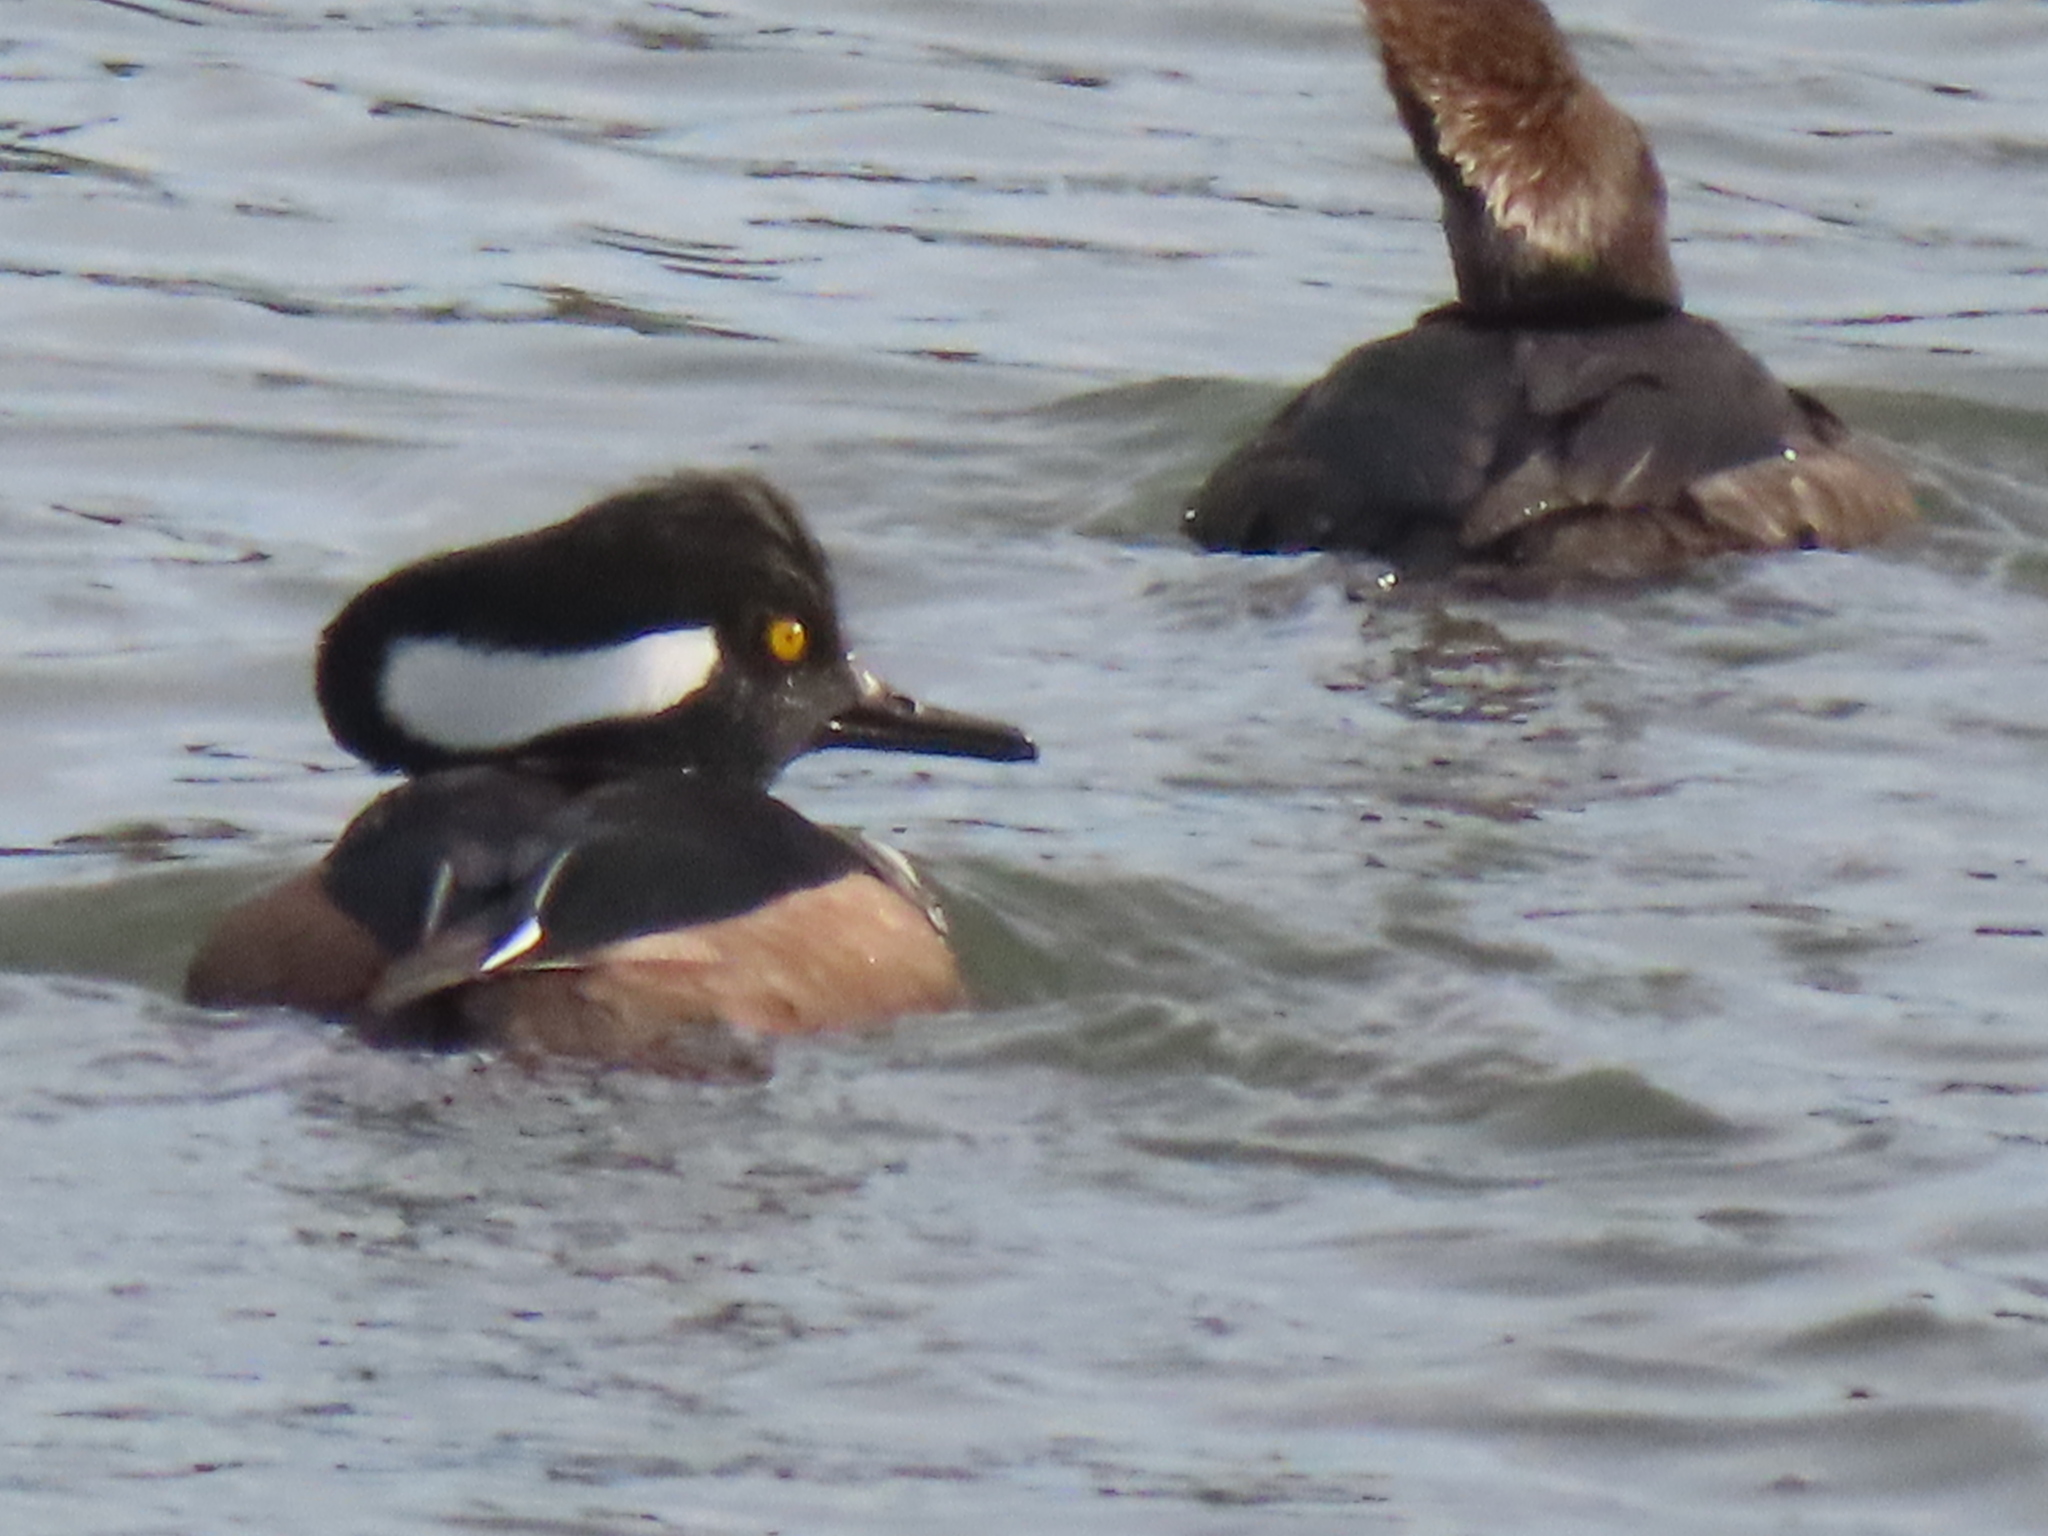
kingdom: Animalia
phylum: Chordata
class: Aves
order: Anseriformes
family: Anatidae
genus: Lophodytes
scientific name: Lophodytes cucullatus
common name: Hooded merganser
